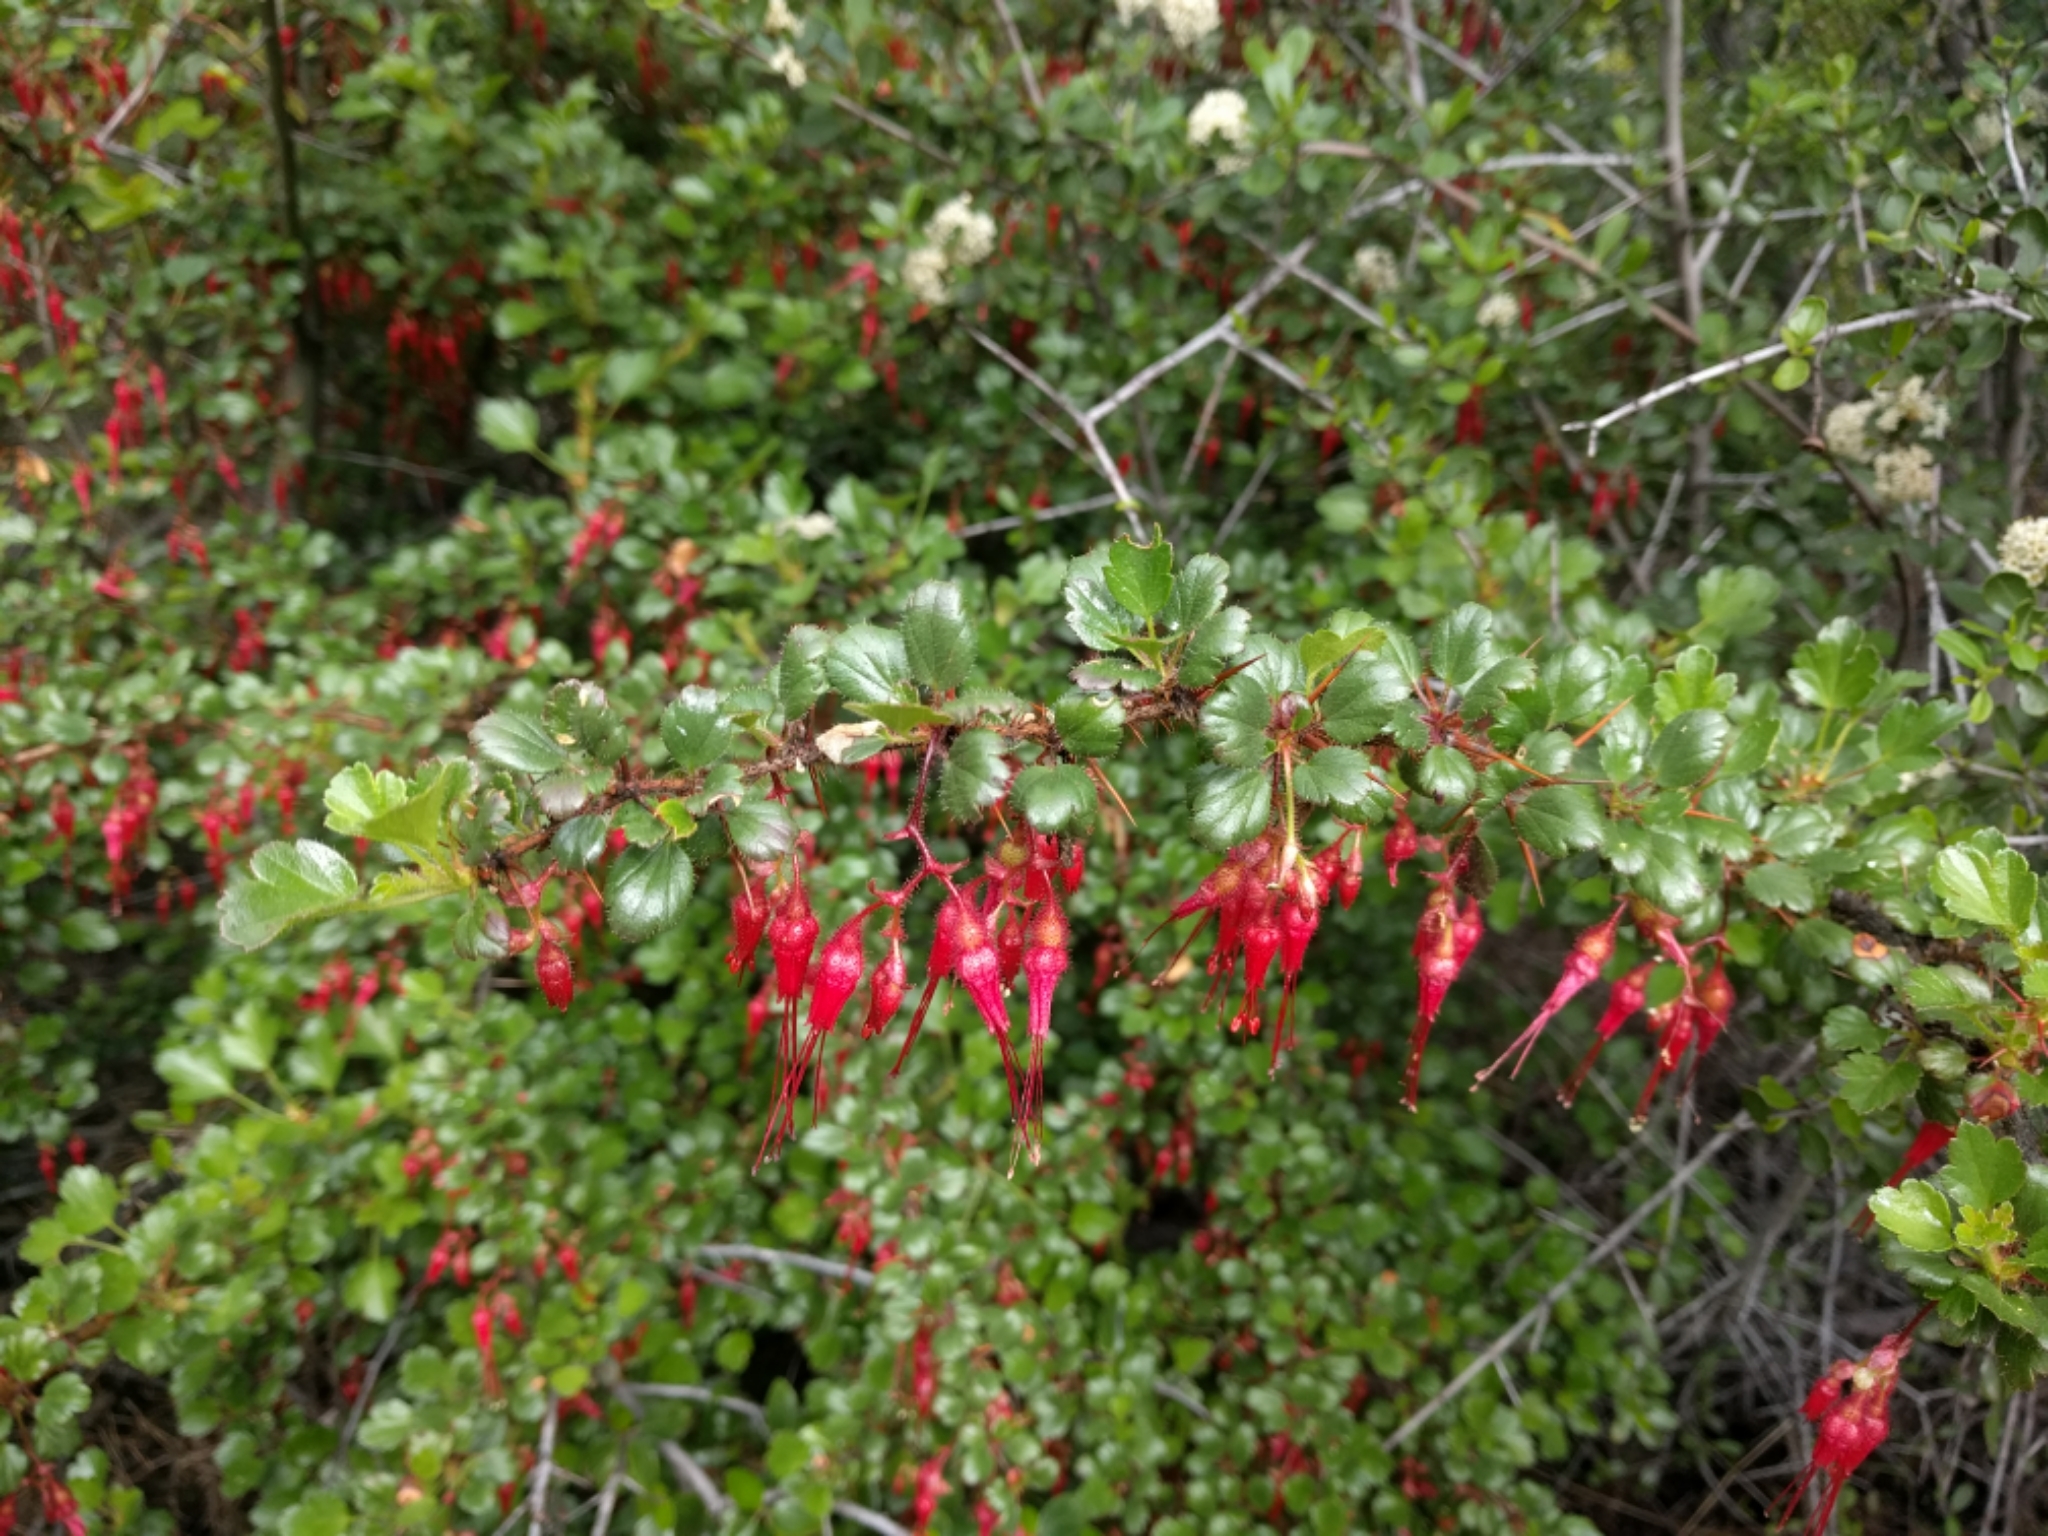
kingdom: Plantae
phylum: Tracheophyta
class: Magnoliopsida
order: Saxifragales
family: Grossulariaceae
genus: Ribes
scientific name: Ribes speciosum
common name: Fuchsia-flower gooseberry
